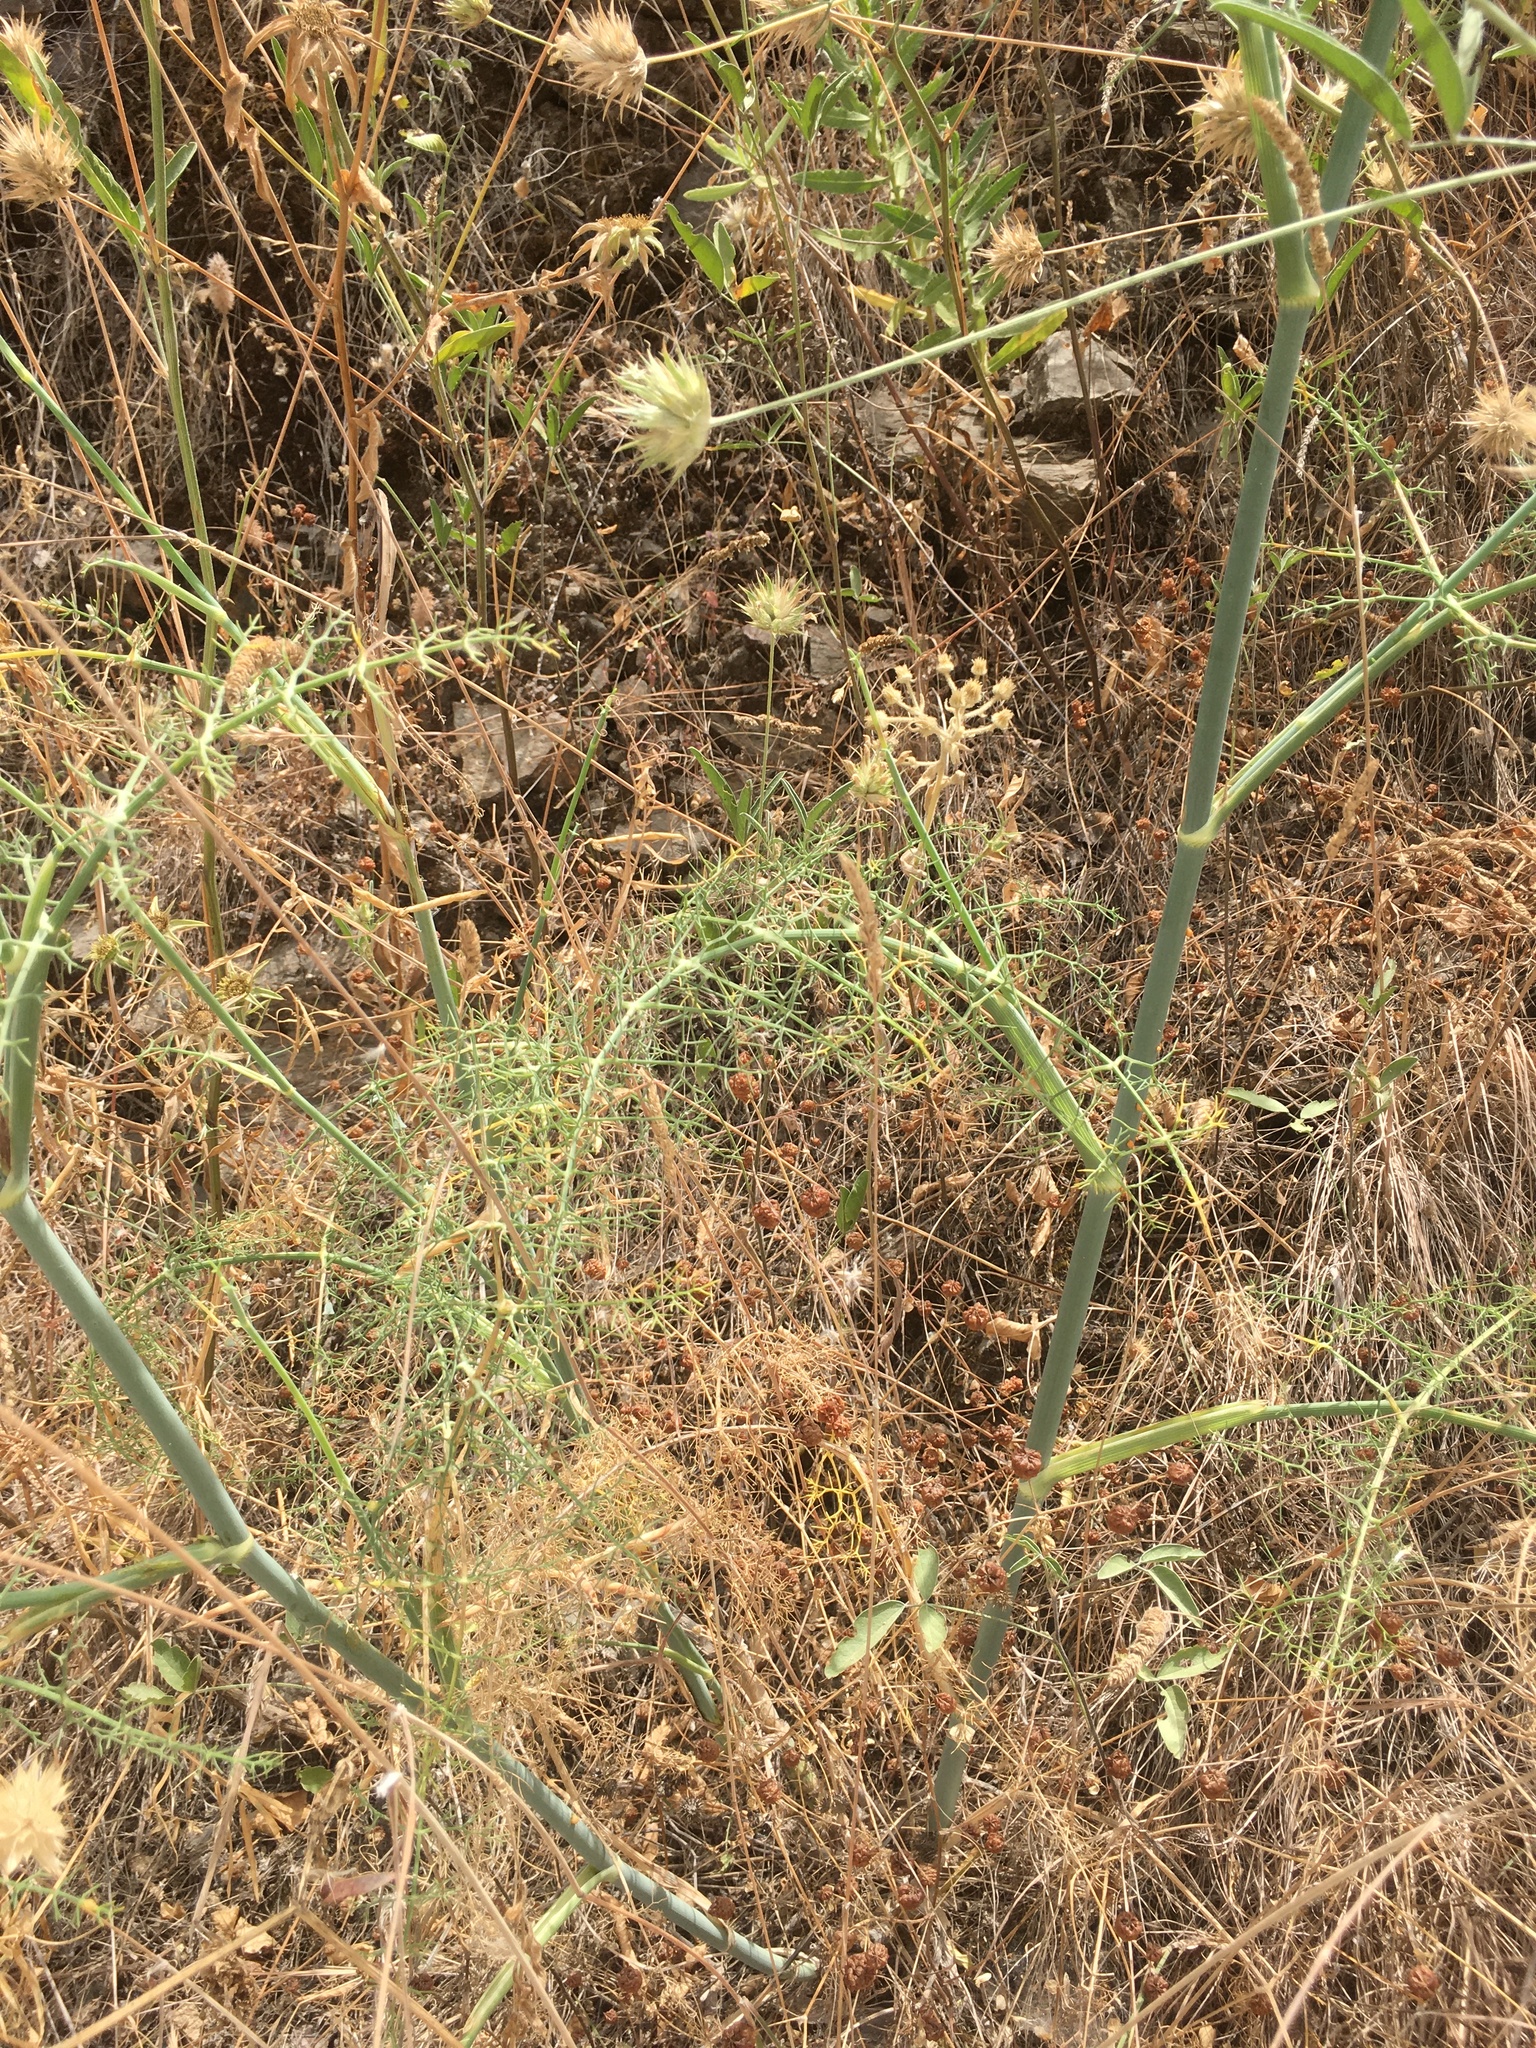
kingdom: Plantae
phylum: Tracheophyta
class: Magnoliopsida
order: Apiales
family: Apiaceae
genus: Foeniculum
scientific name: Foeniculum vulgare
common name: Fennel
